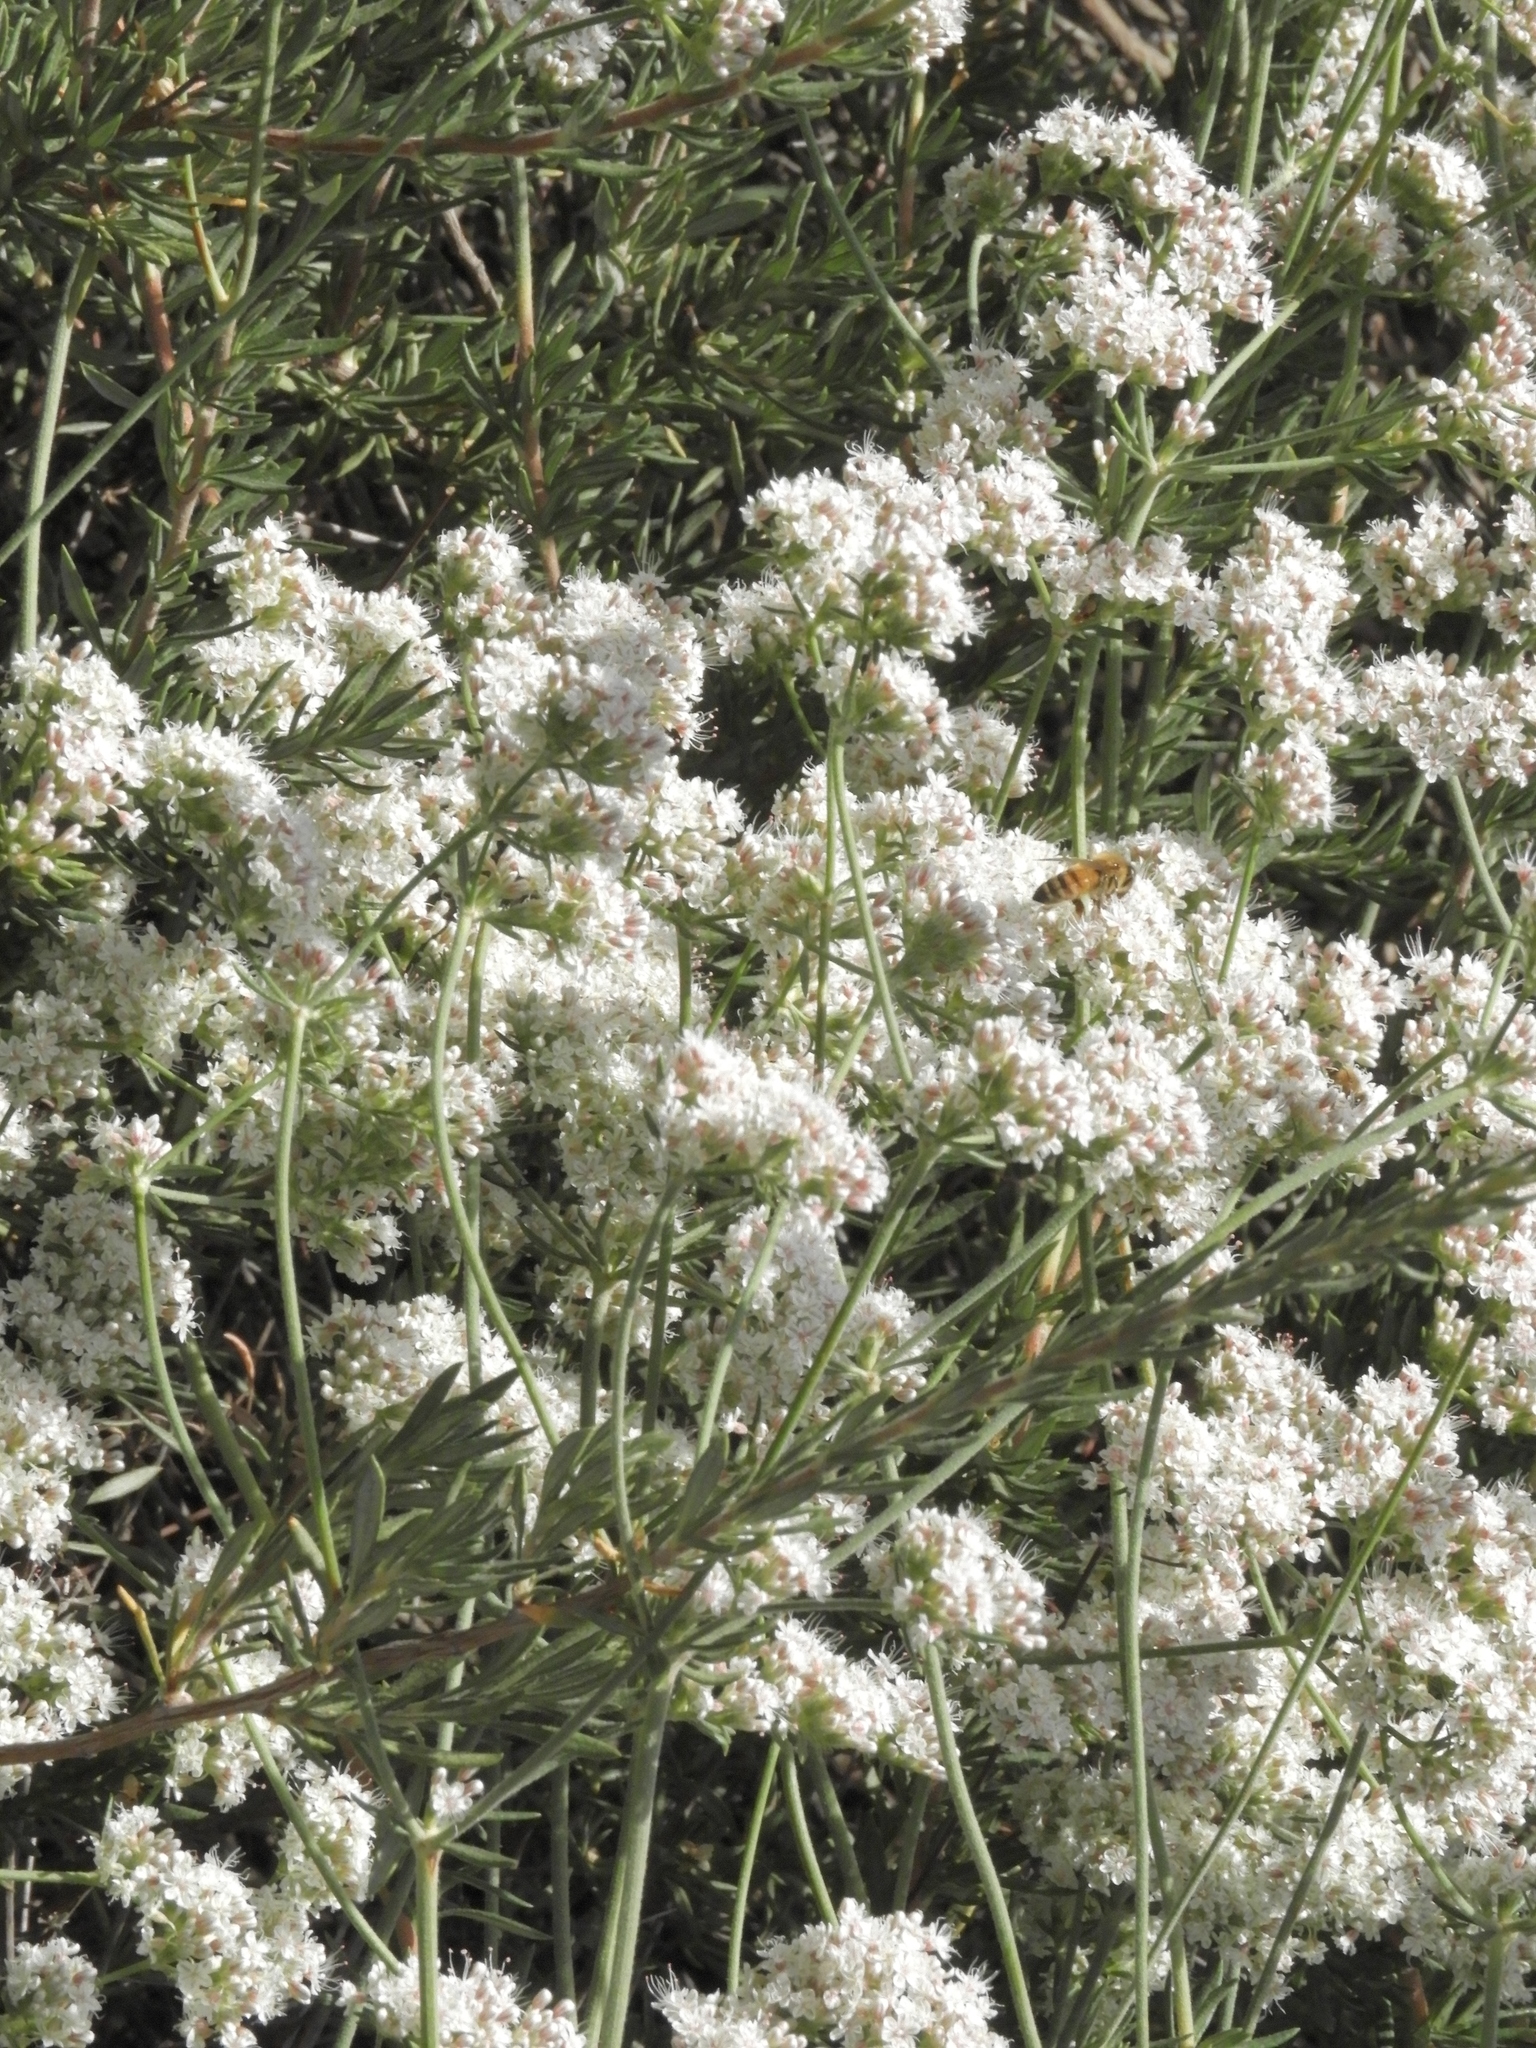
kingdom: Plantae
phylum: Tracheophyta
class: Magnoliopsida
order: Caryophyllales
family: Polygonaceae
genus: Eriogonum
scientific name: Eriogonum fasciculatum
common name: California wild buckwheat
